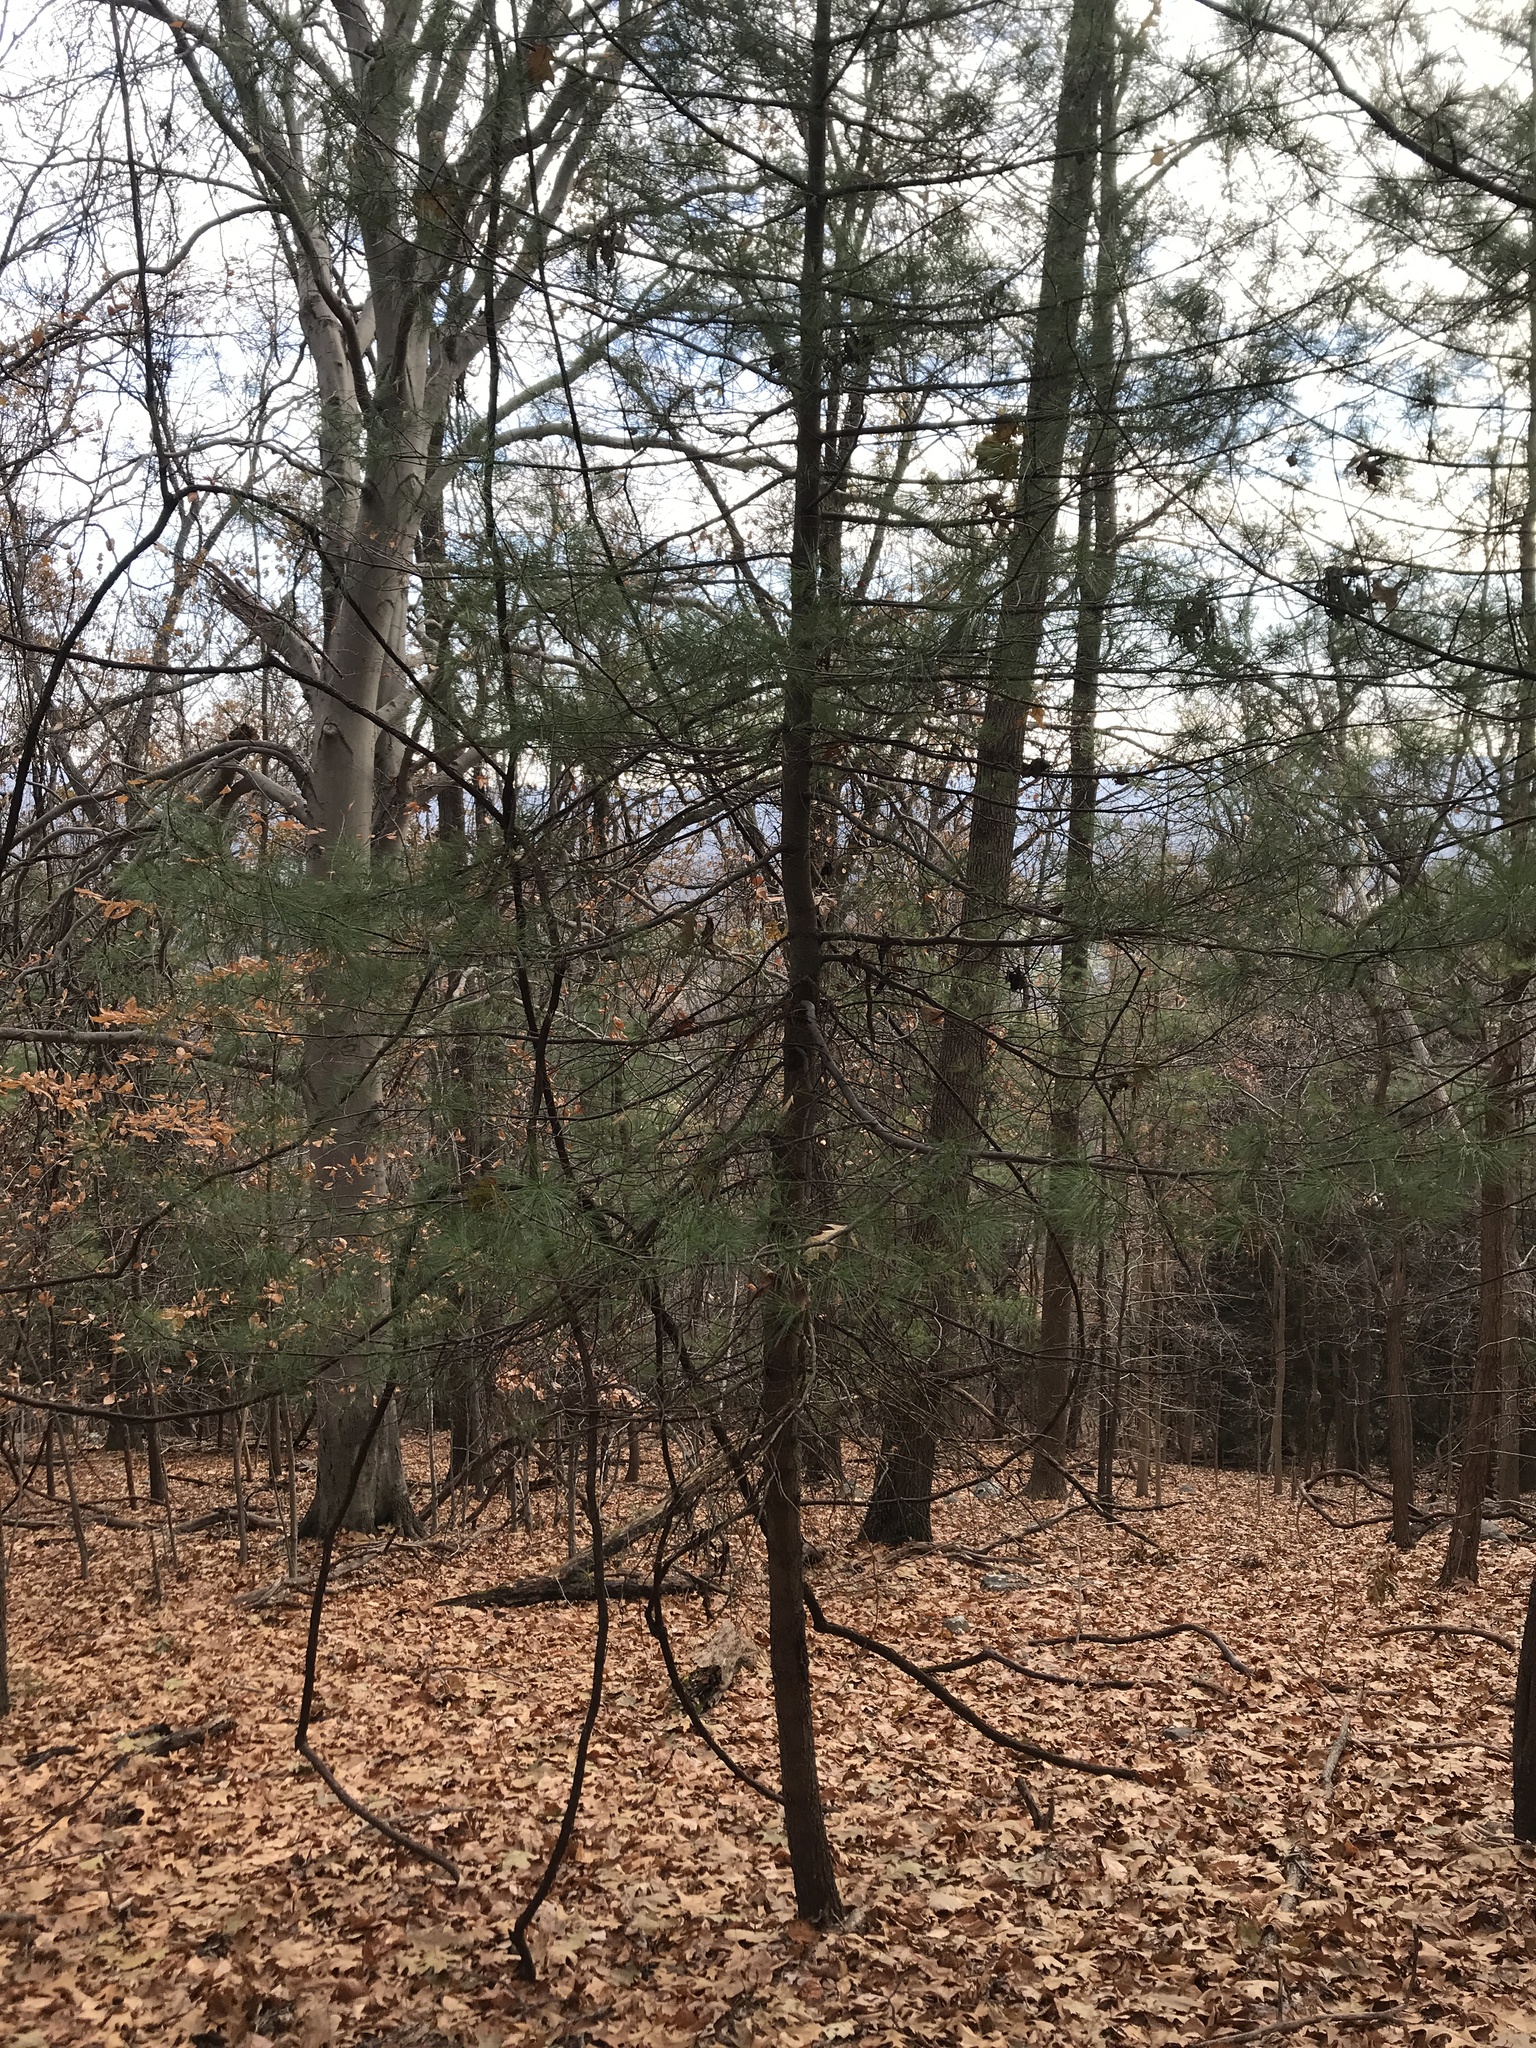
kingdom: Plantae
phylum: Tracheophyta
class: Pinopsida
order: Pinales
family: Pinaceae
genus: Pinus
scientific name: Pinus strobus
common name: Weymouth pine
